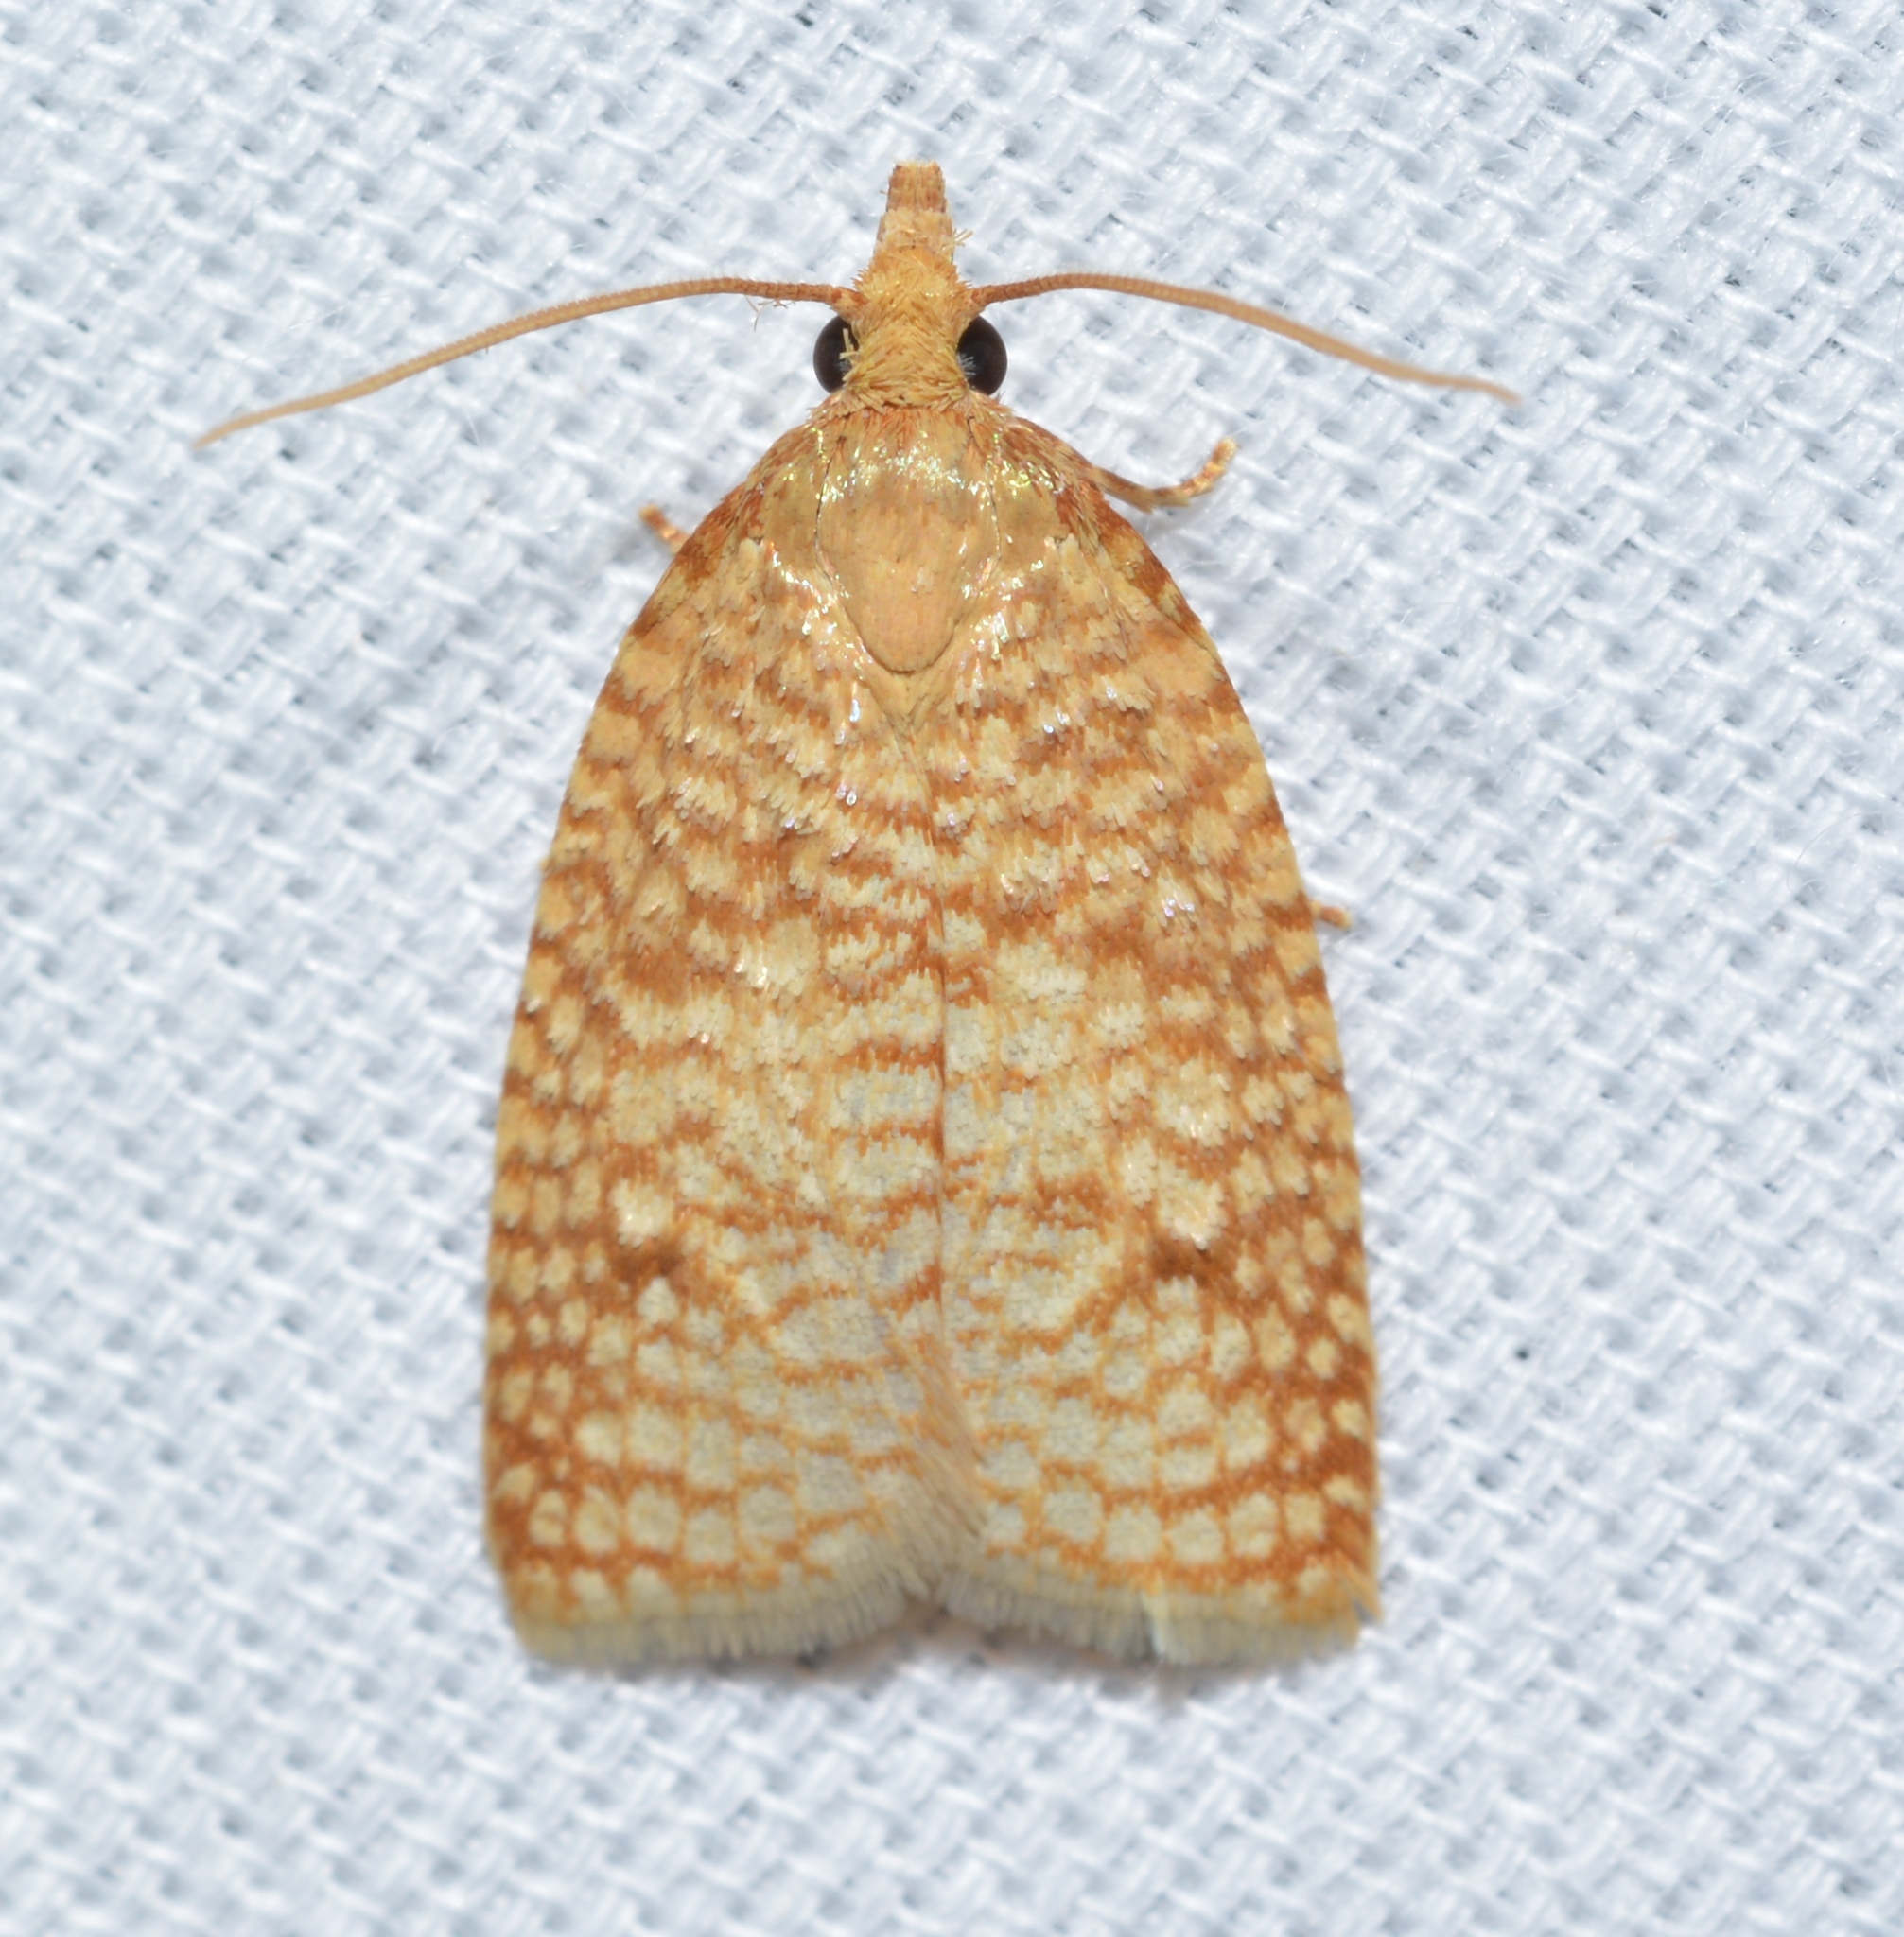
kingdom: Animalia
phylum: Arthropoda
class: Insecta
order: Lepidoptera
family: Tortricidae
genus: Sparganothis
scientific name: Sparganothis caryae
